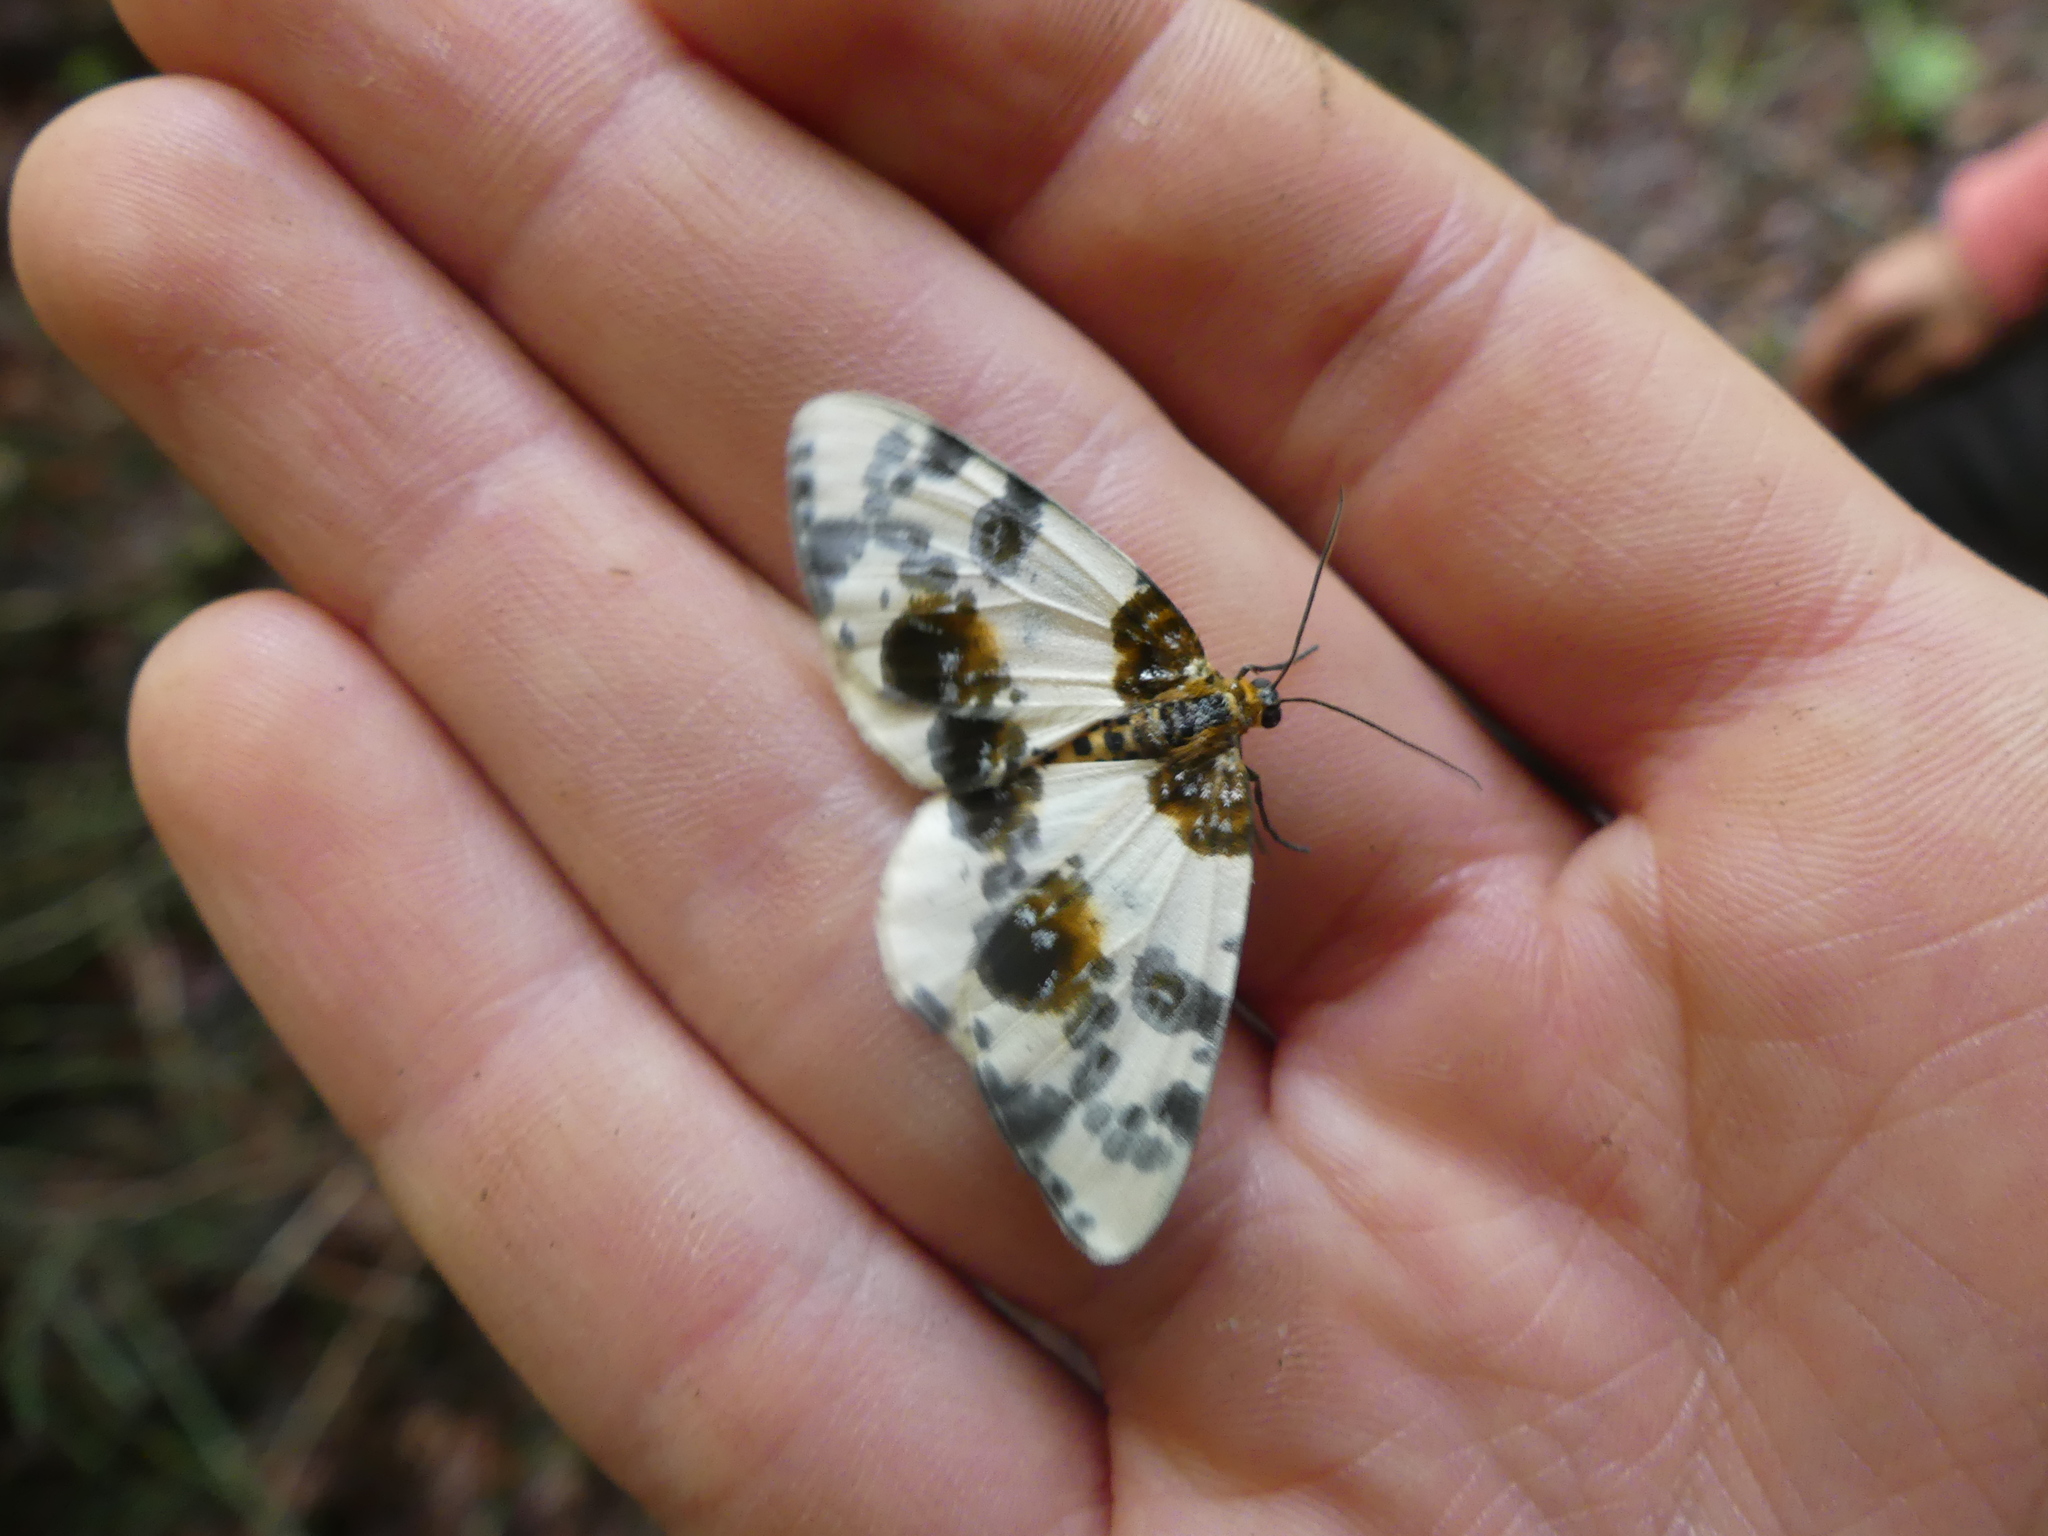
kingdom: Animalia
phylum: Arthropoda
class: Insecta
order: Lepidoptera
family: Geometridae
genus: Abraxas
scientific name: Abraxas sylvata
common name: Clouded magpie
